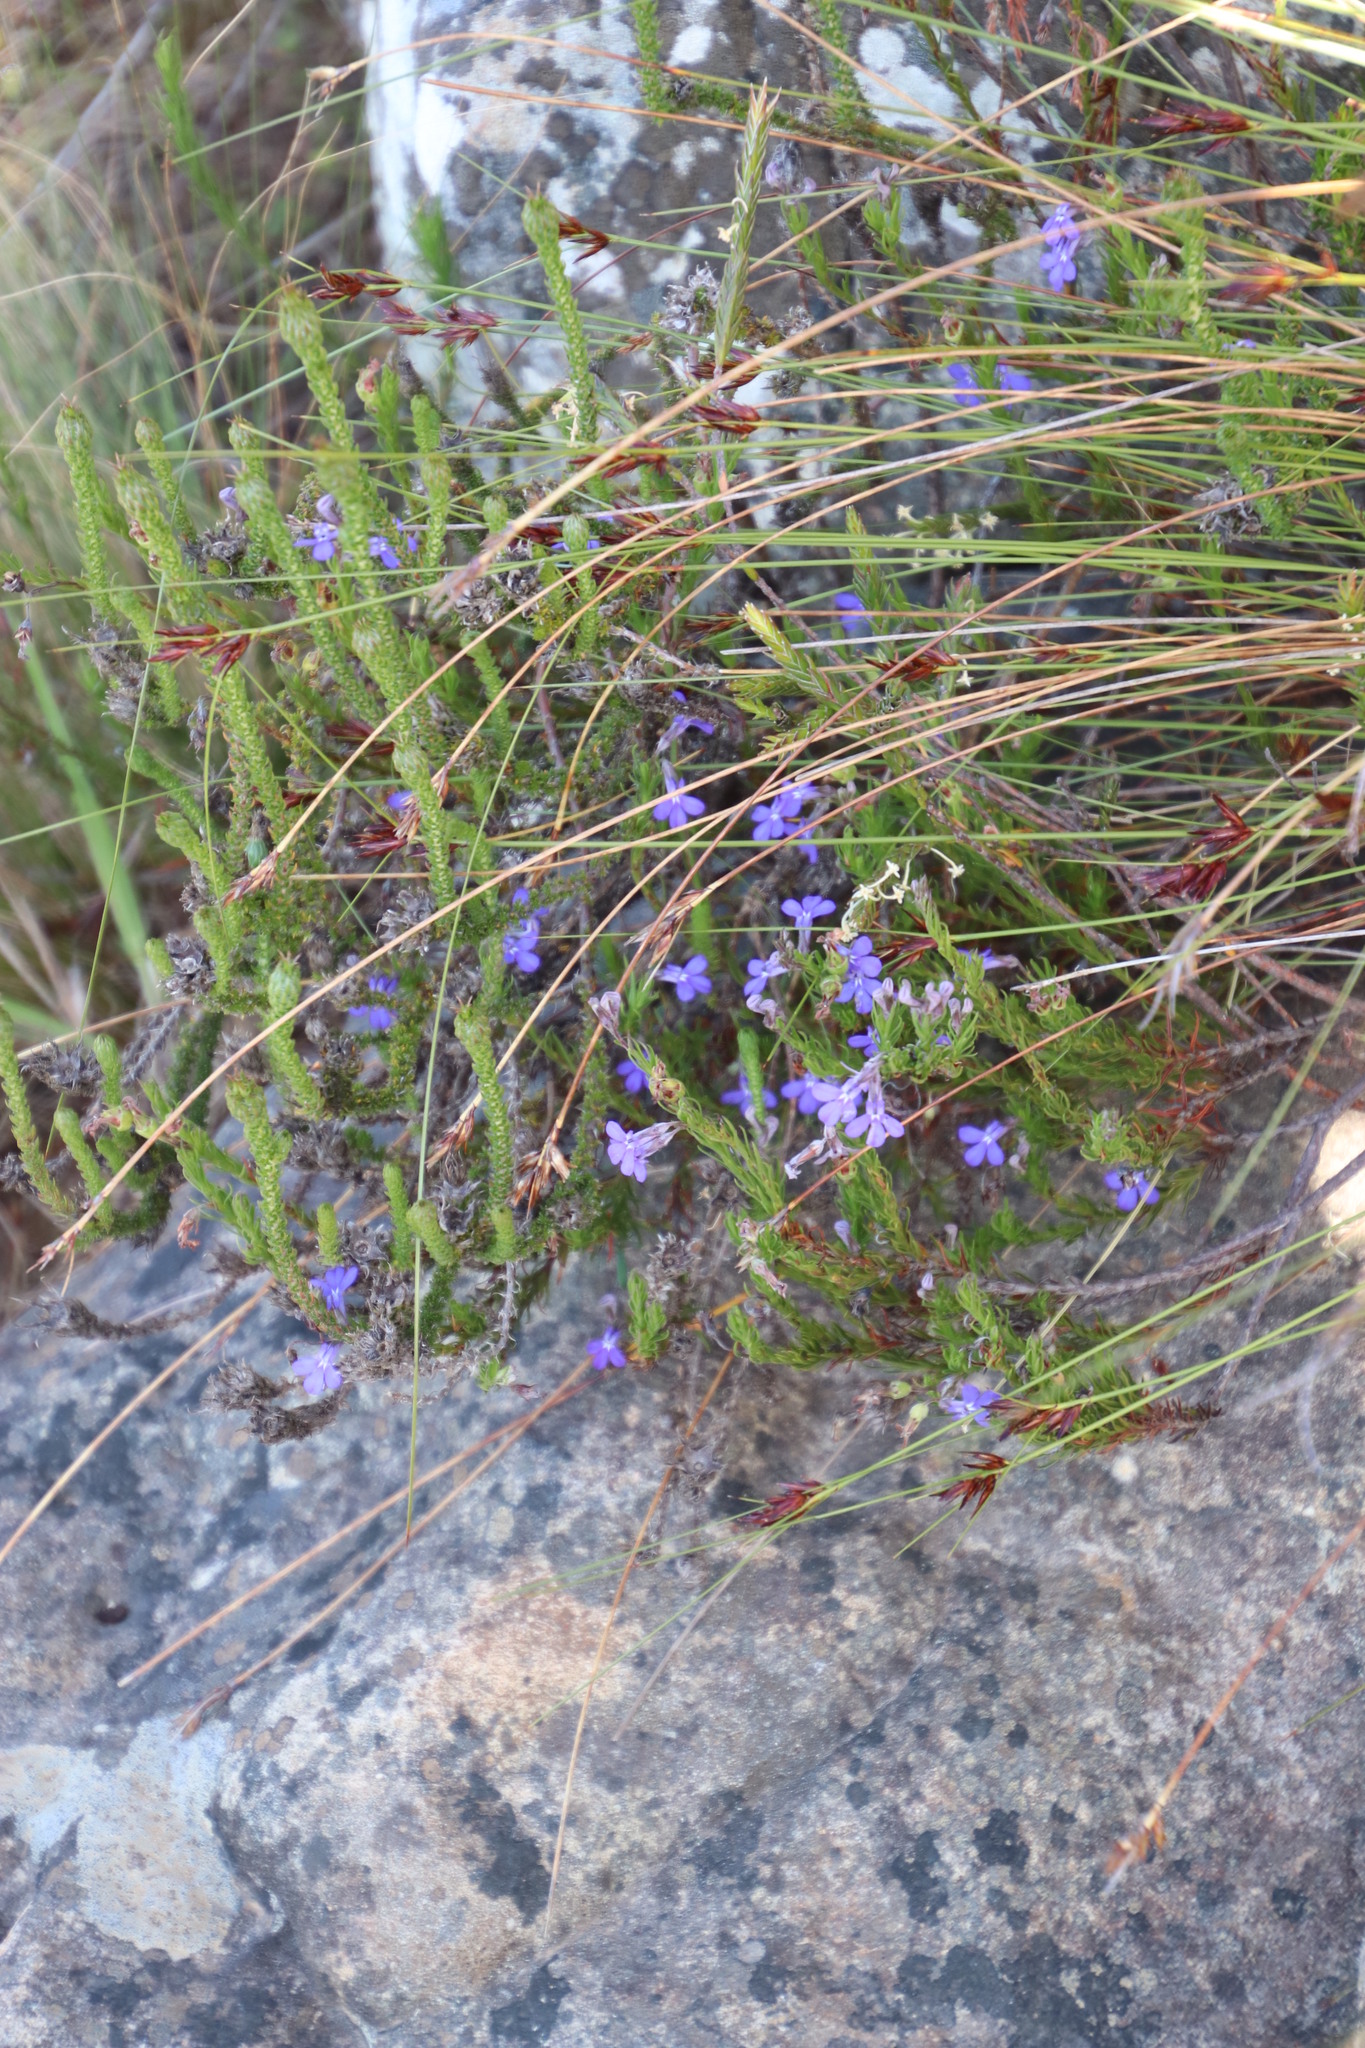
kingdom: Plantae
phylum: Tracheophyta
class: Magnoliopsida
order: Asterales
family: Campanulaceae
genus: Lobelia
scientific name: Lobelia pinifolia
